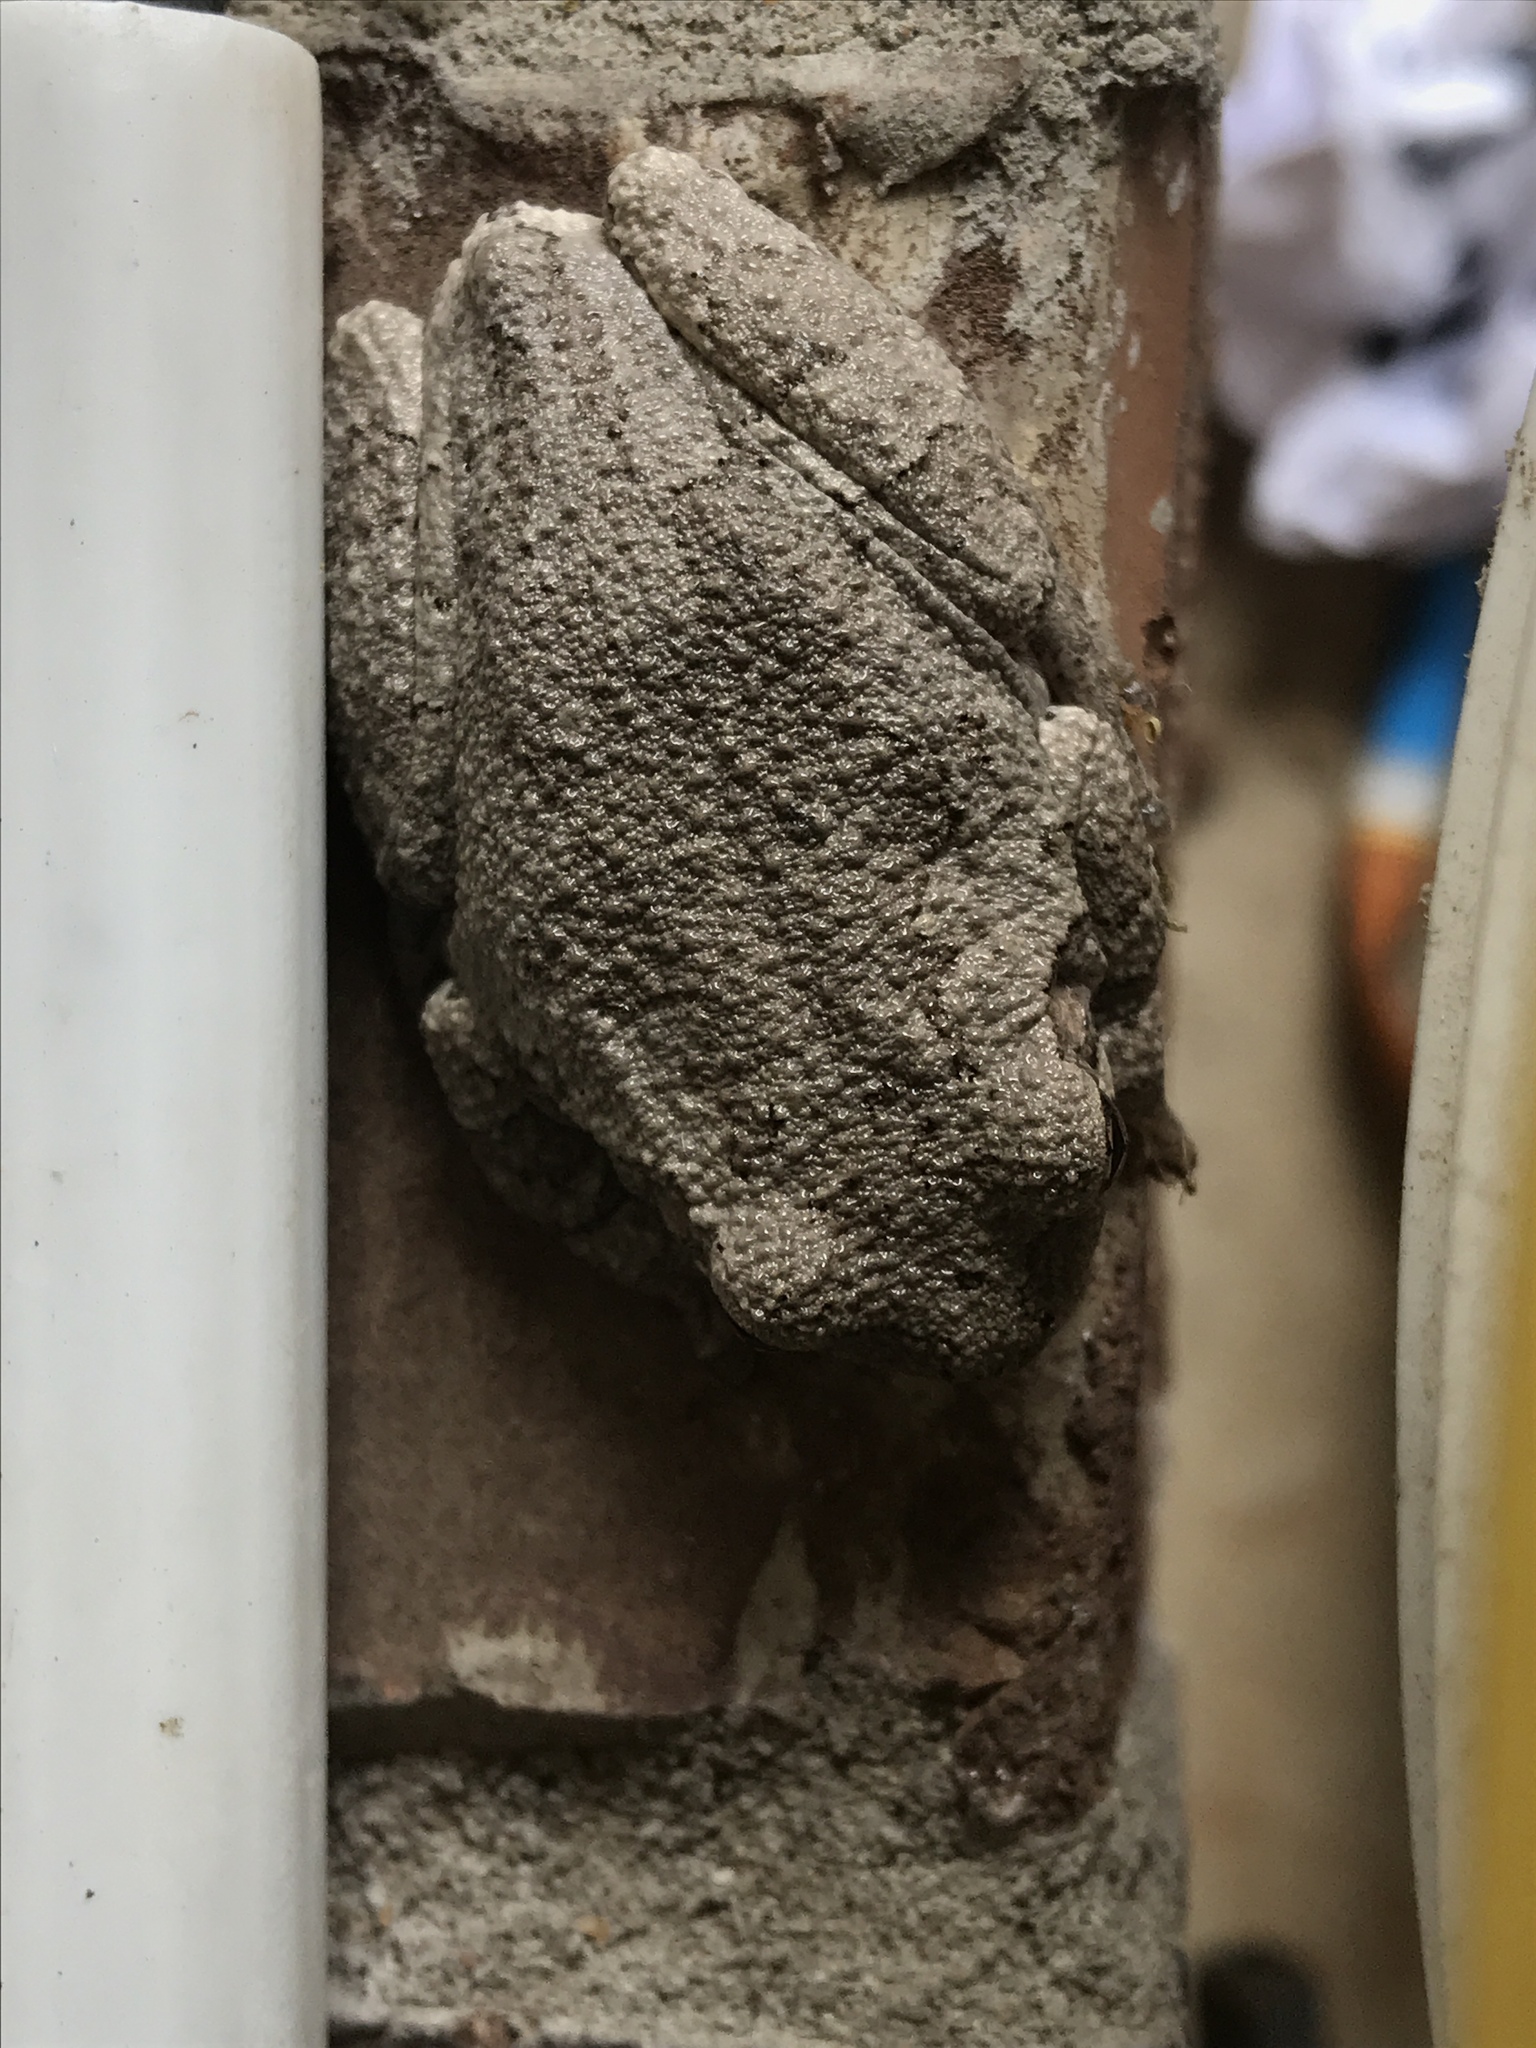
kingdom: Animalia
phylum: Chordata
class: Amphibia
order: Anura
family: Hylidae
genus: Hyla
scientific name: Hyla
